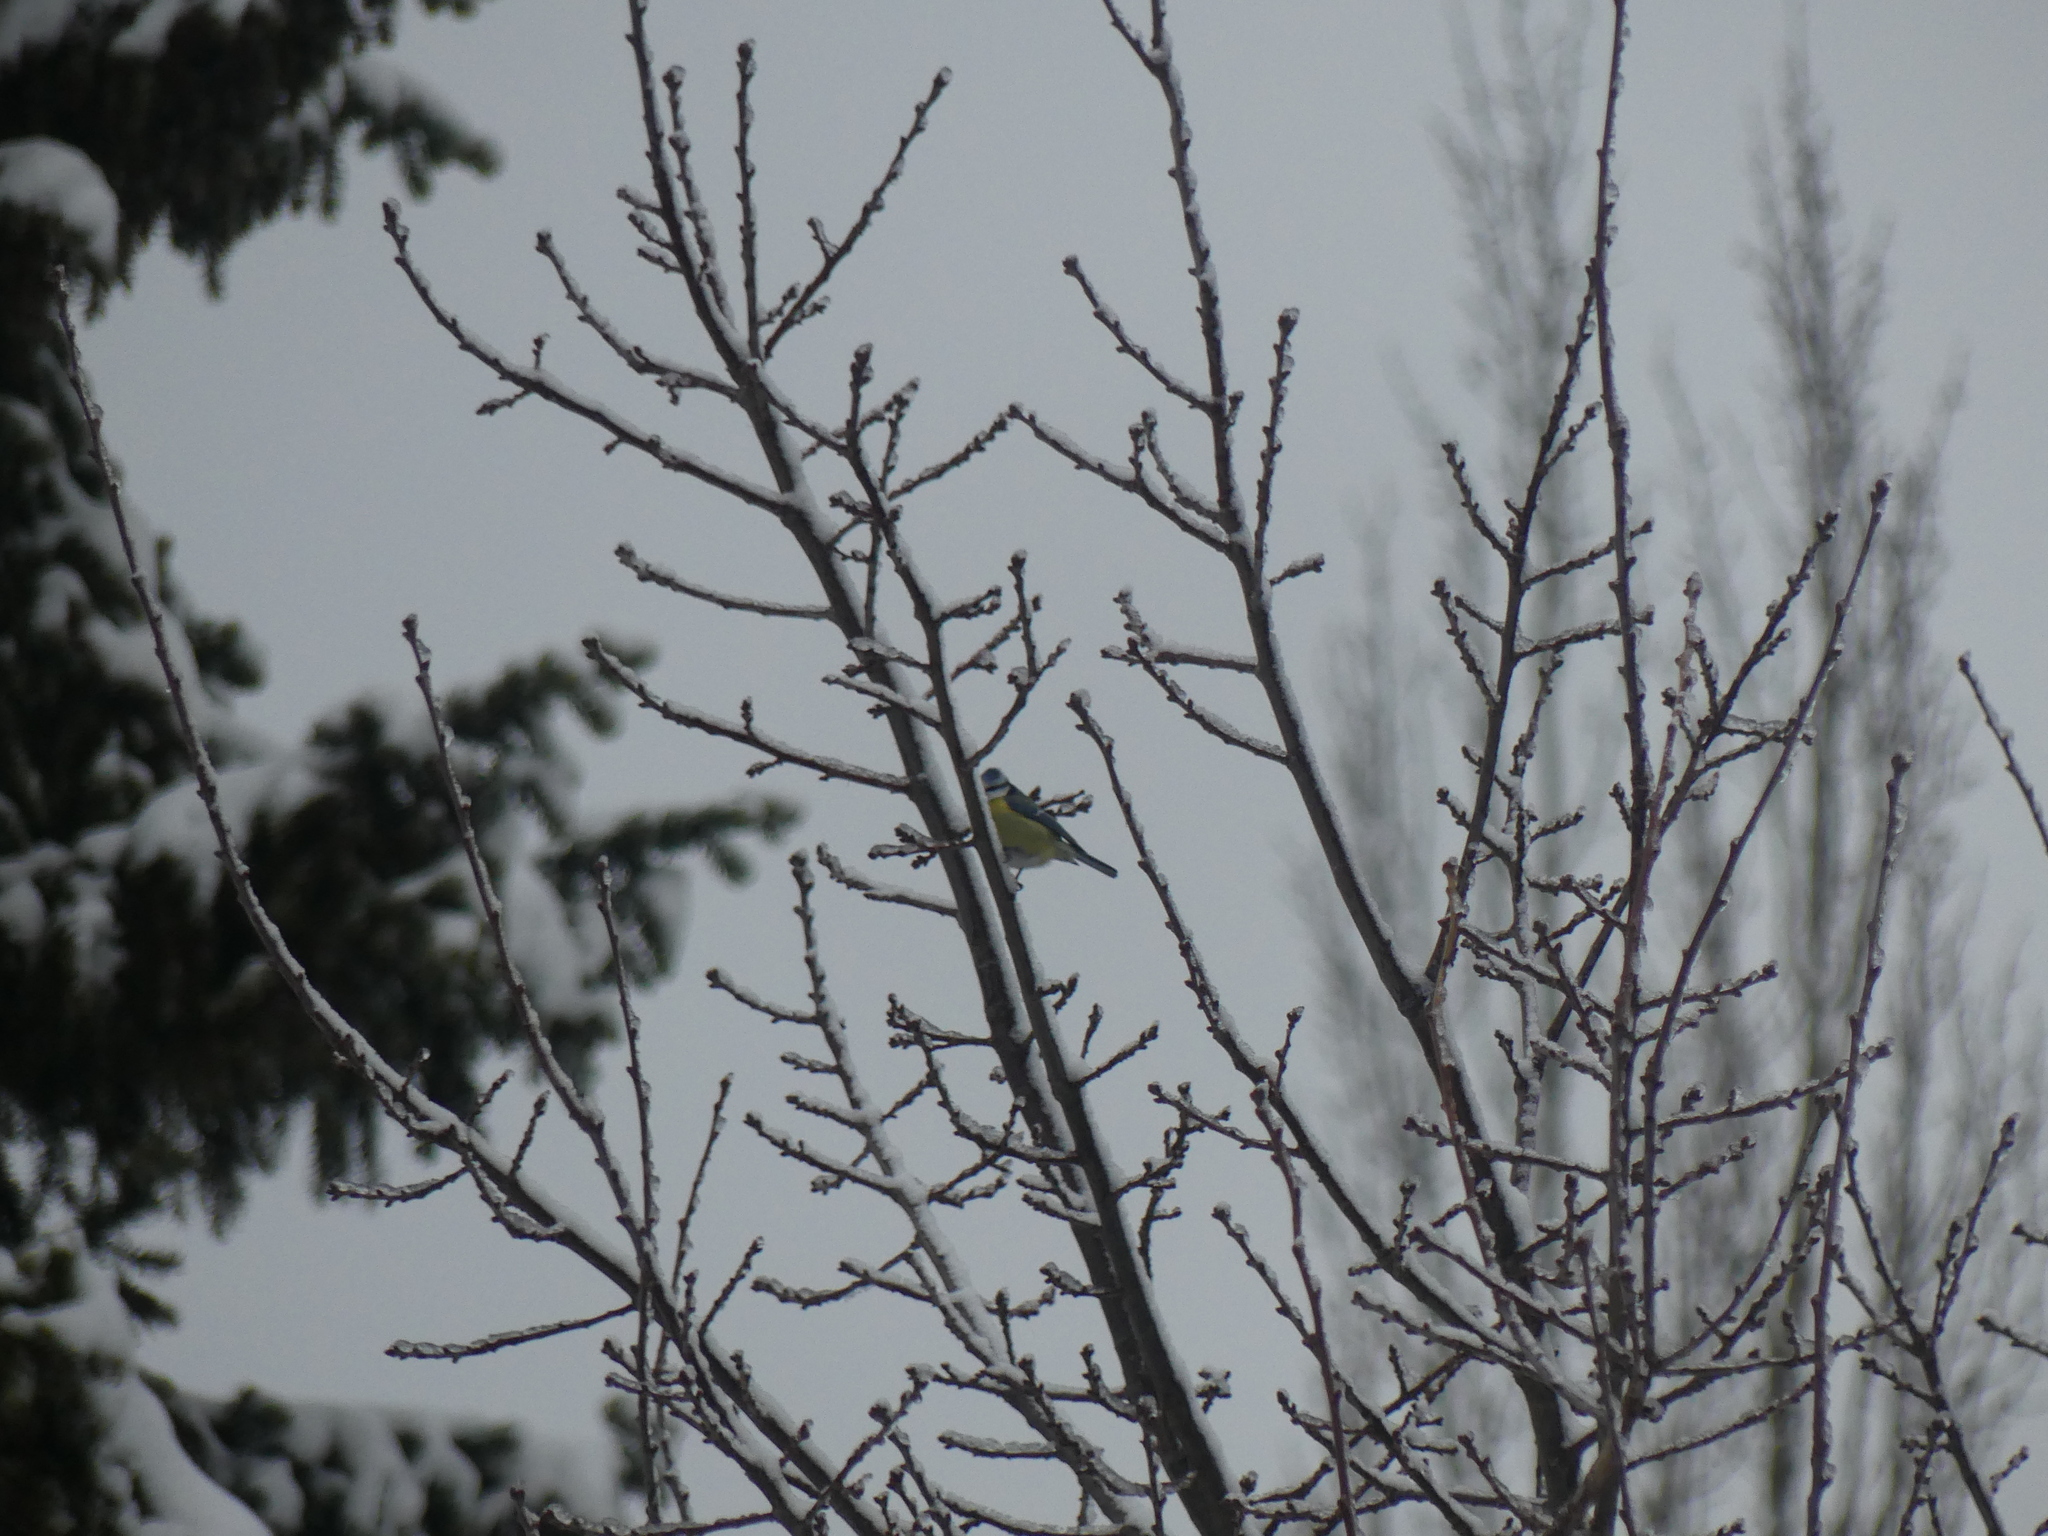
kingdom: Animalia
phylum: Chordata
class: Aves
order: Passeriformes
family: Paridae
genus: Cyanistes
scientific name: Cyanistes caeruleus
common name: Eurasian blue tit
